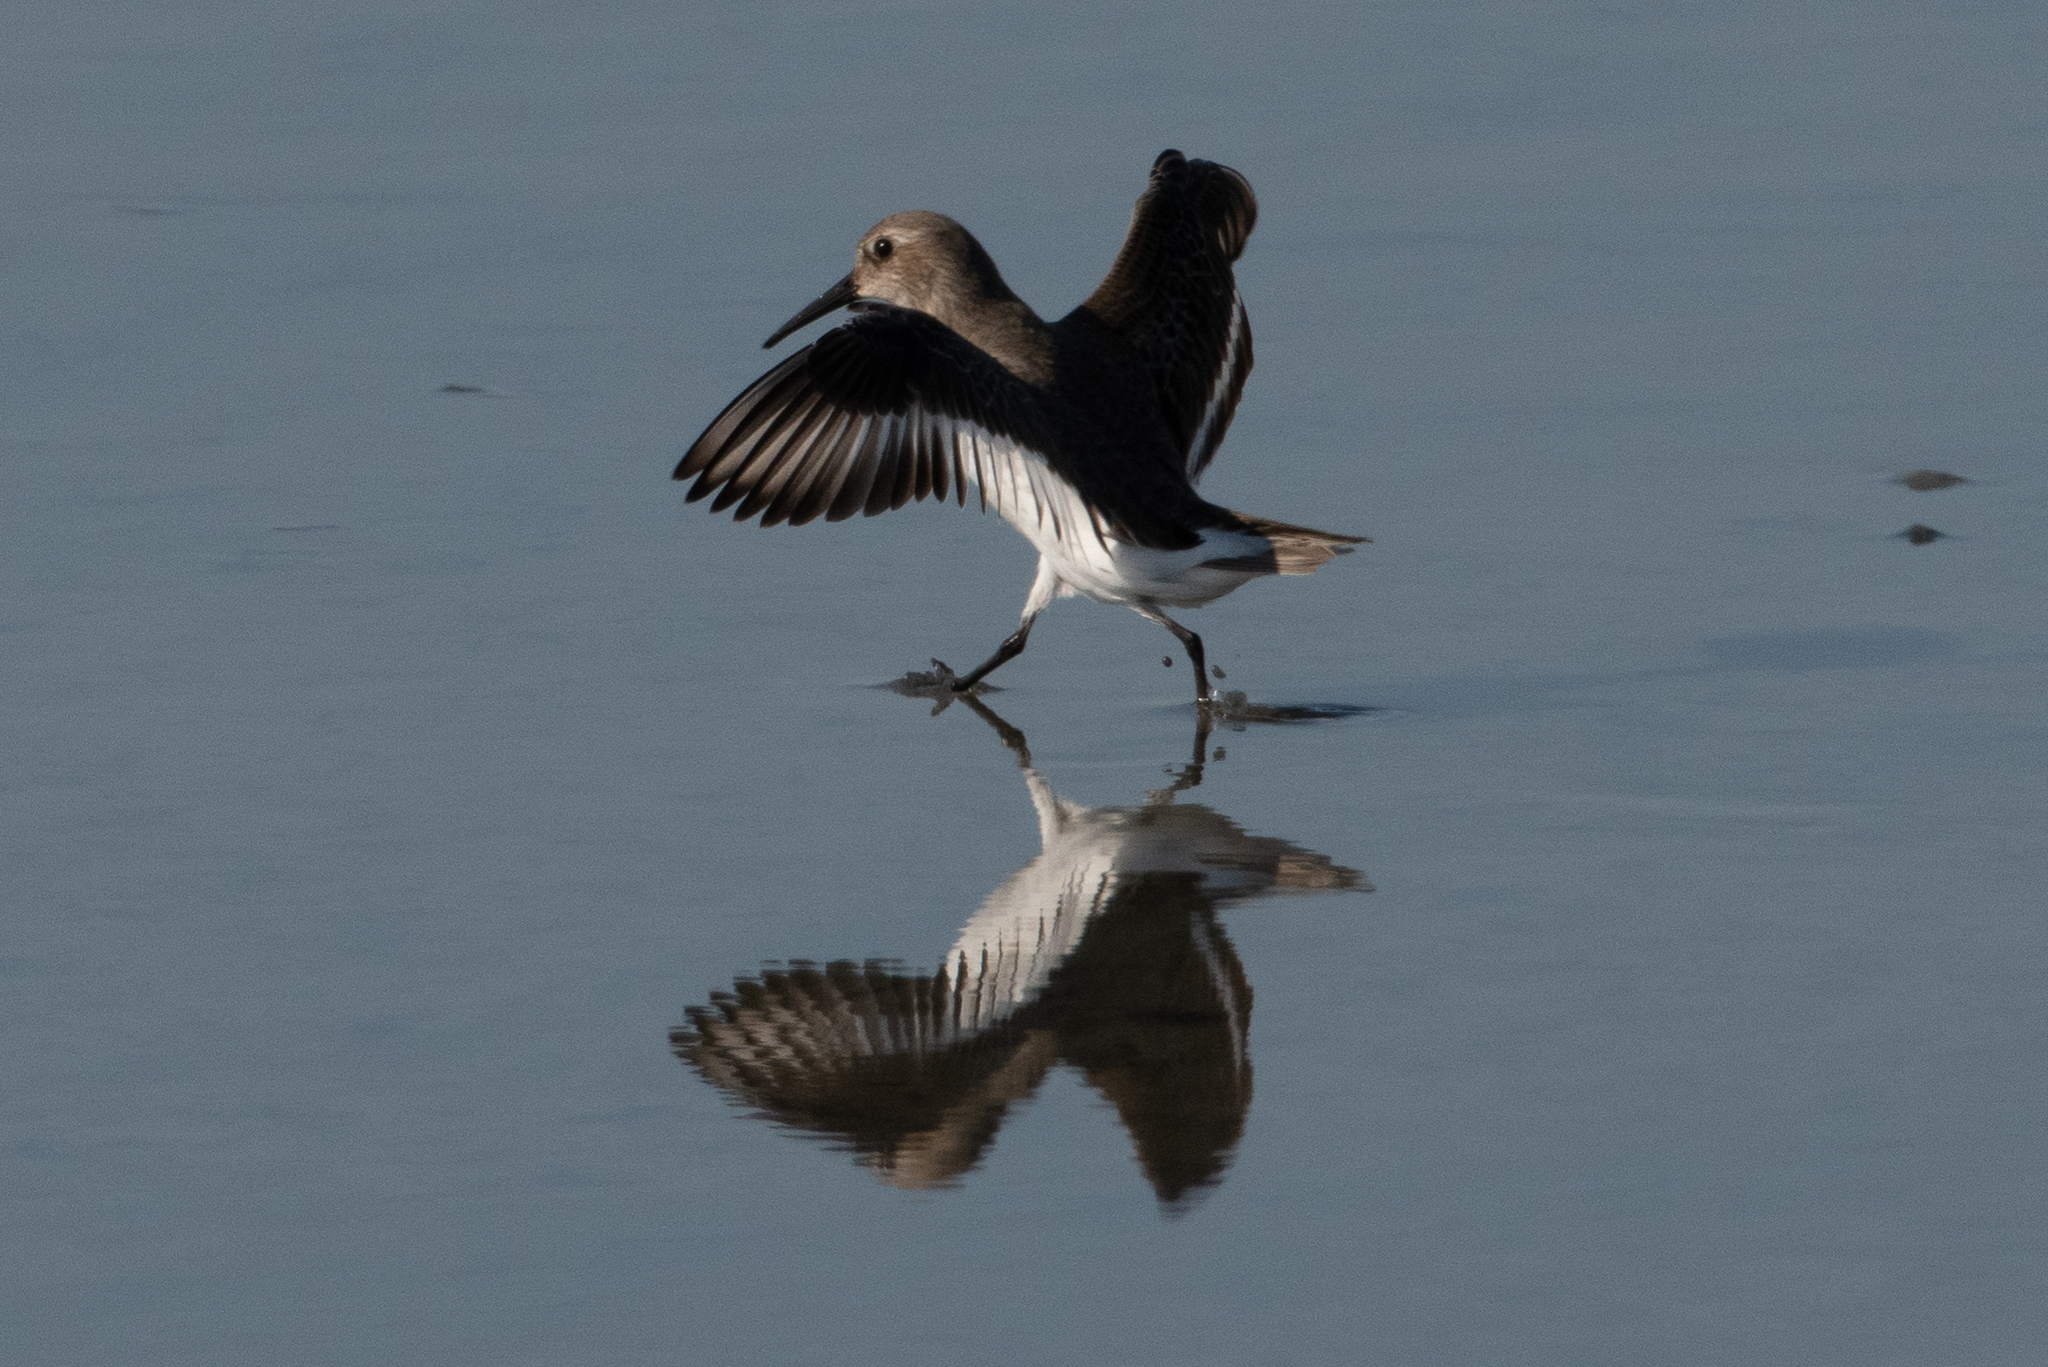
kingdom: Animalia
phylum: Chordata
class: Aves
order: Charadriiformes
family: Scolopacidae
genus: Calidris
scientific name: Calidris alpina
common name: Dunlin
